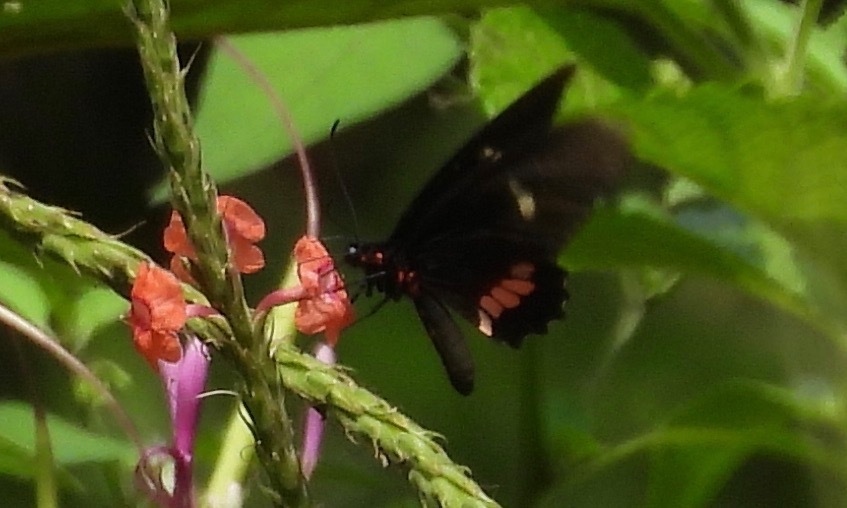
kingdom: Animalia
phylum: Arthropoda
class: Insecta
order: Lepidoptera
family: Papilionidae
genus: Parides
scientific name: Parides iphidamas
